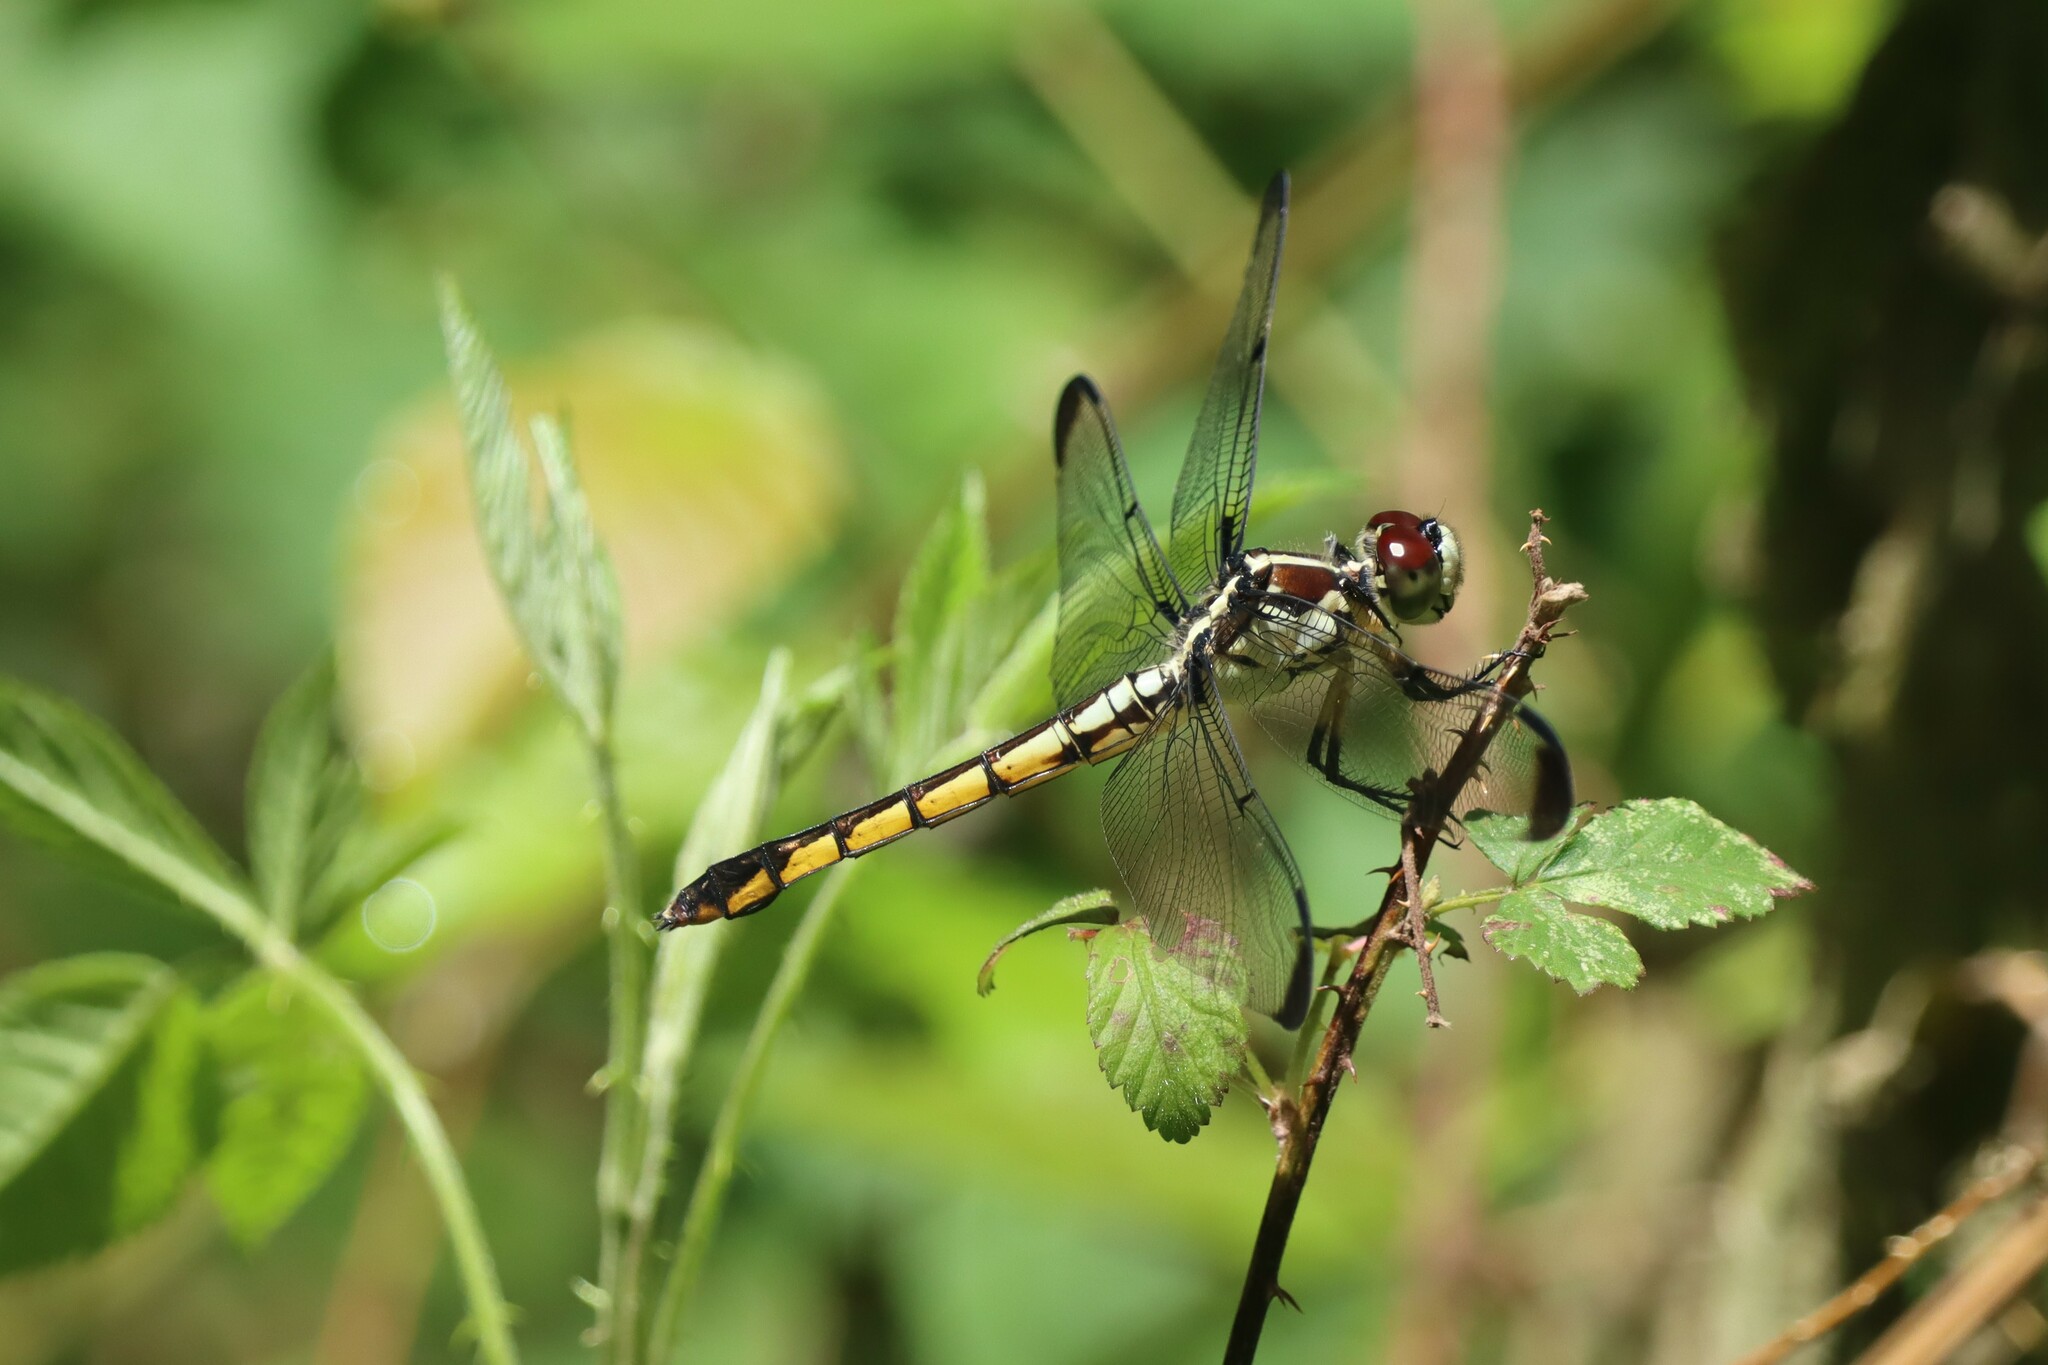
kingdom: Animalia
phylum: Arthropoda
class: Insecta
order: Odonata
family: Libellulidae
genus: Libellula
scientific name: Libellula vibrans
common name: Great blue skimmer
